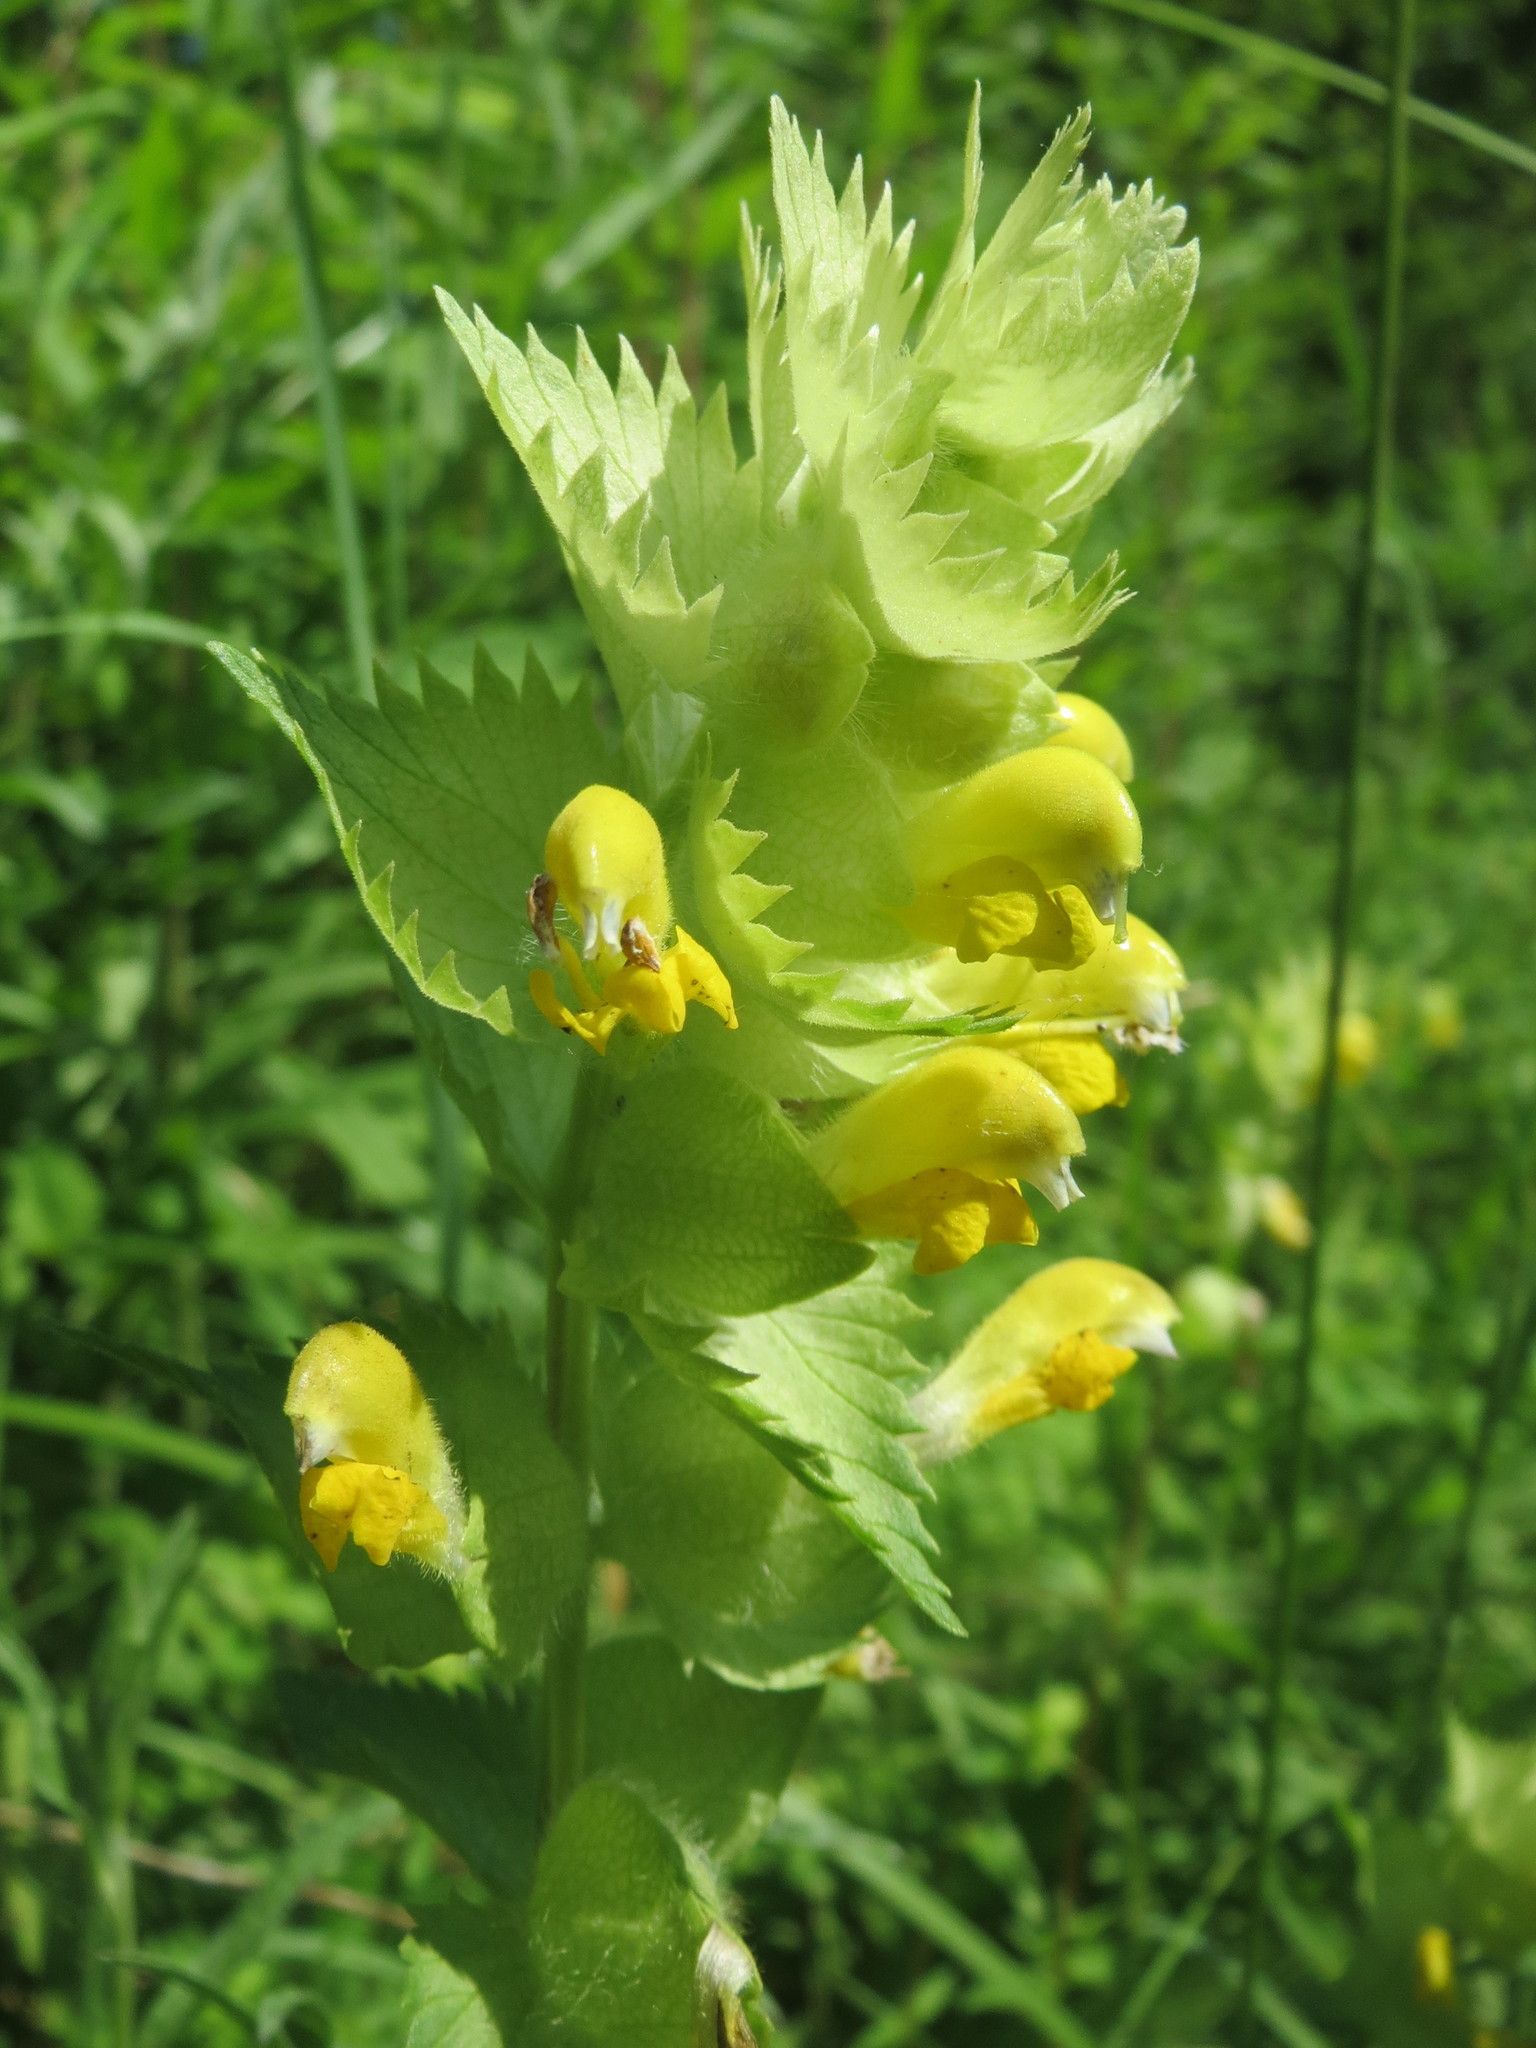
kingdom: Plantae
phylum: Tracheophyta
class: Magnoliopsida
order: Lamiales
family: Orobanchaceae
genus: Rhinanthus
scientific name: Rhinanthus alectorolophus
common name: Greater yellow-rattle
